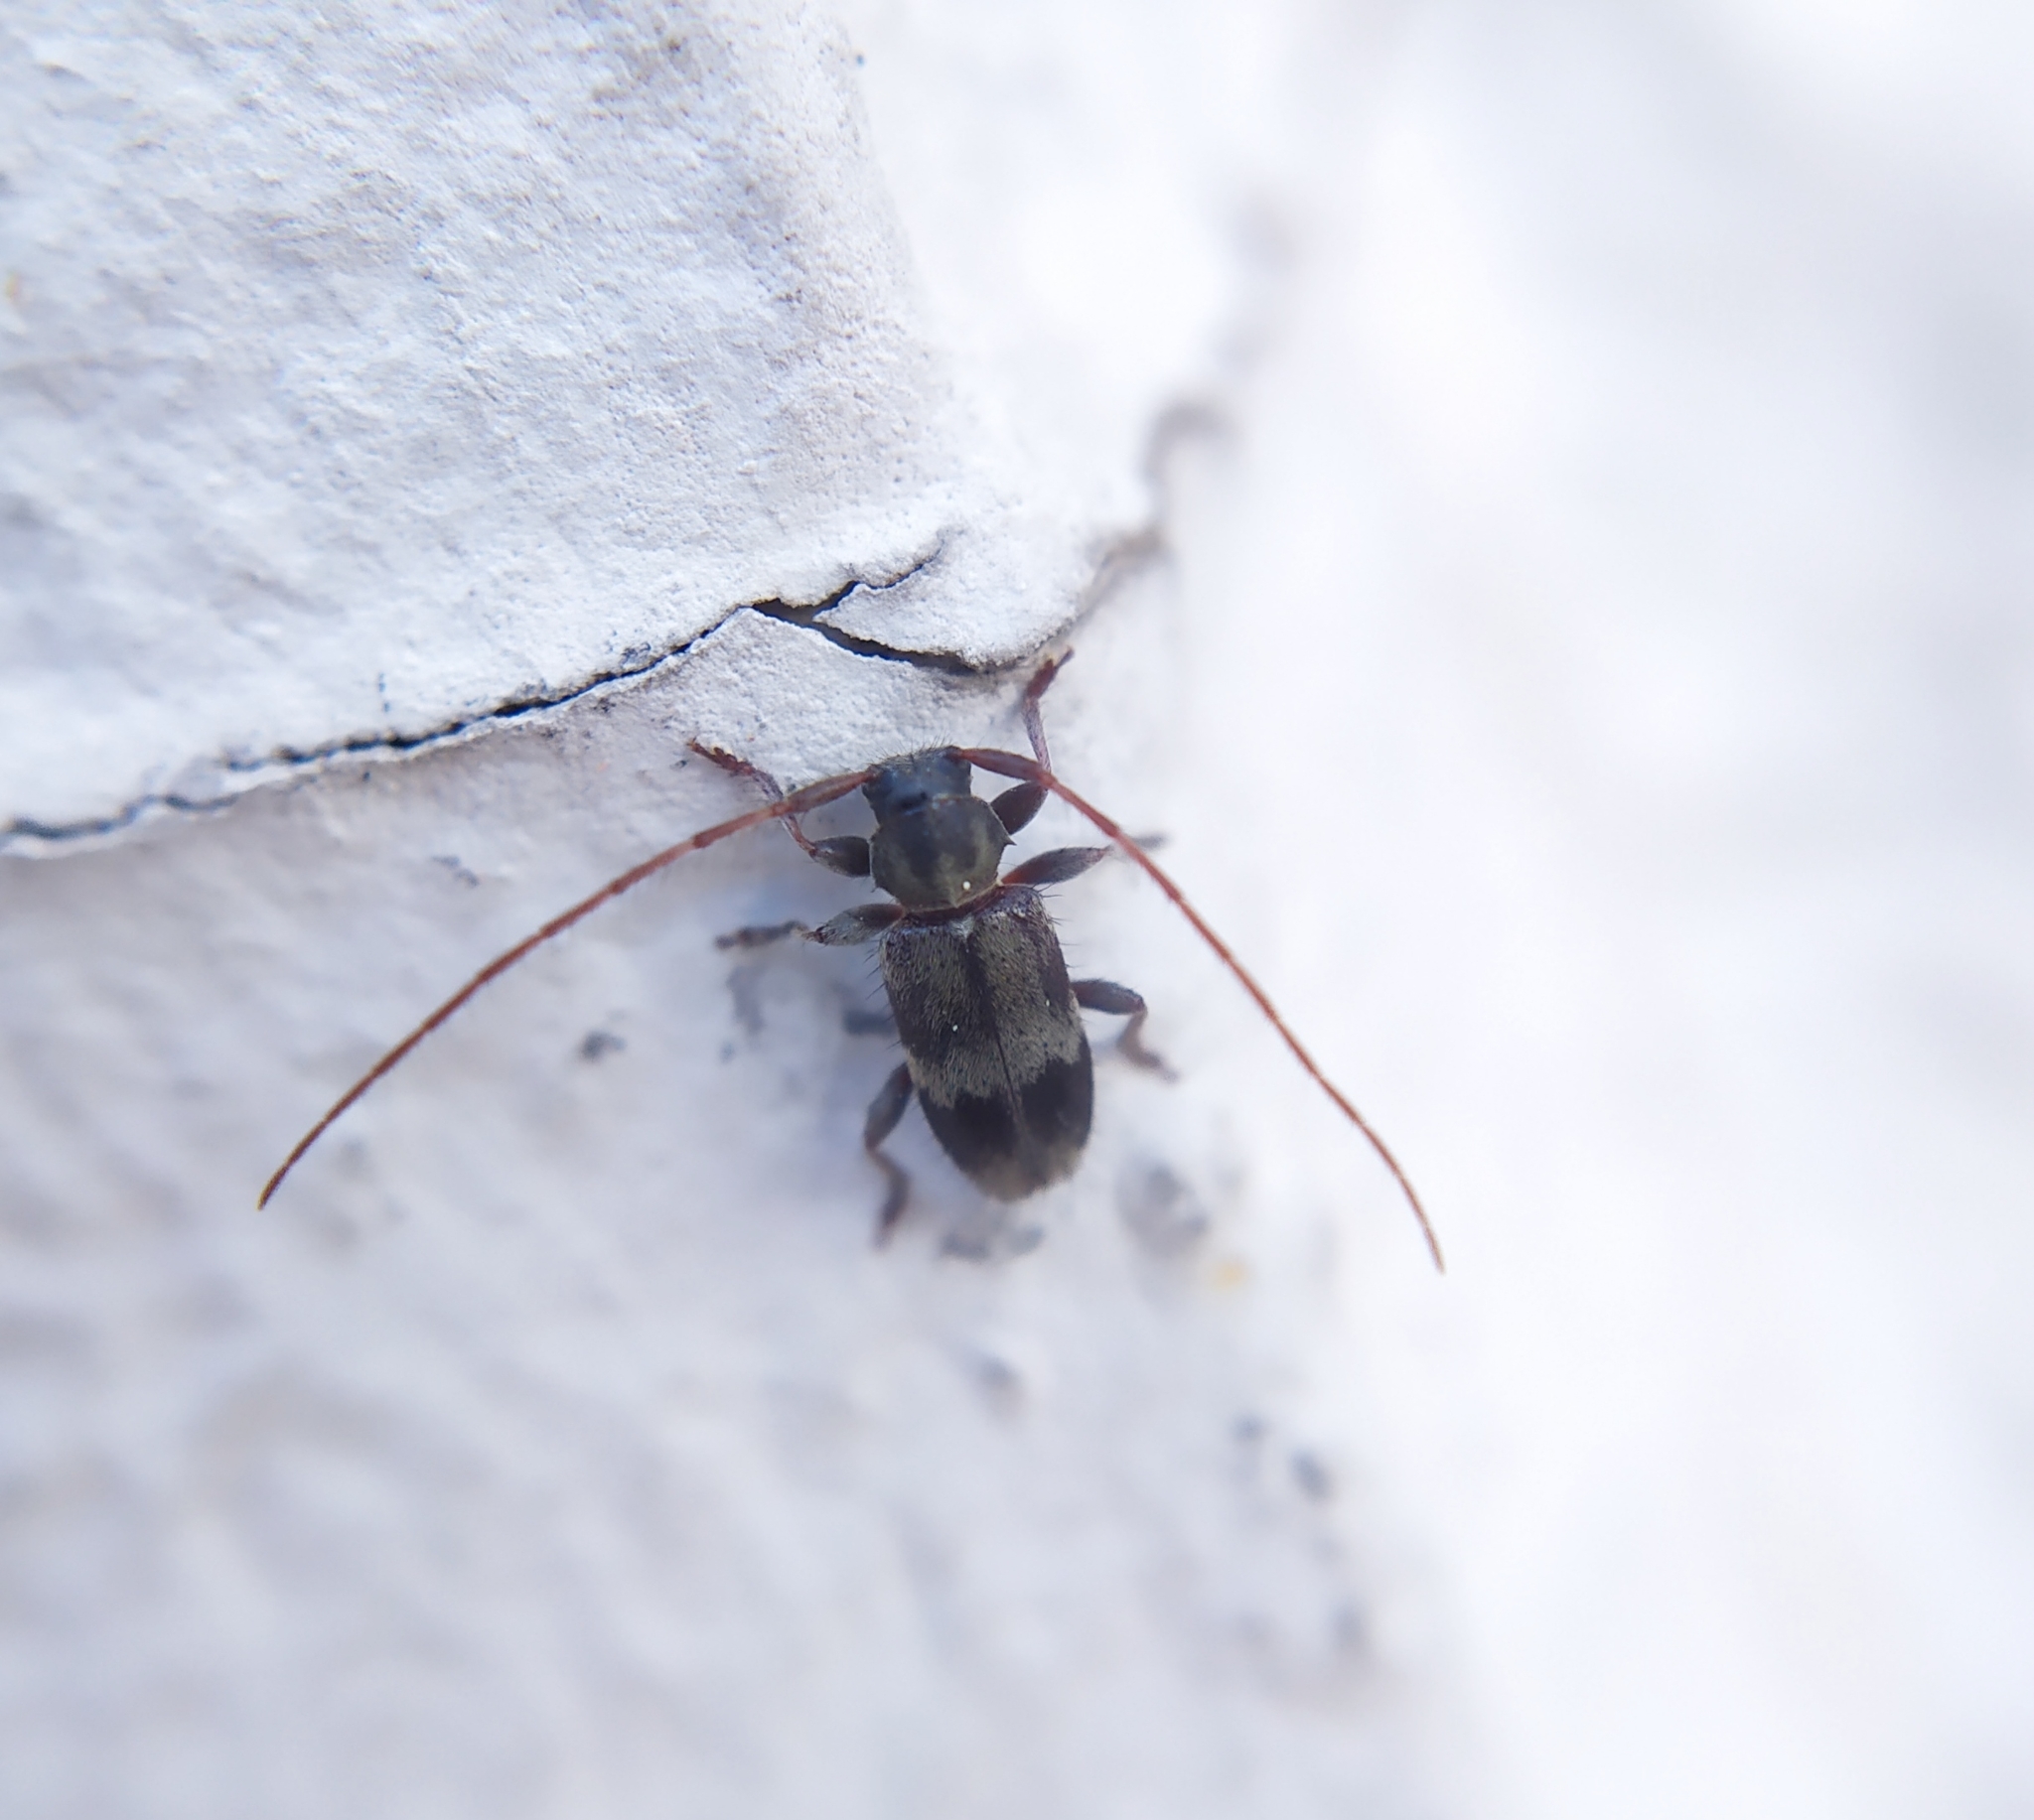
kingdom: Animalia
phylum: Arthropoda
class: Insecta
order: Coleoptera
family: Cerambycidae
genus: Exocentrus
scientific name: Exocentrus lusitanus
